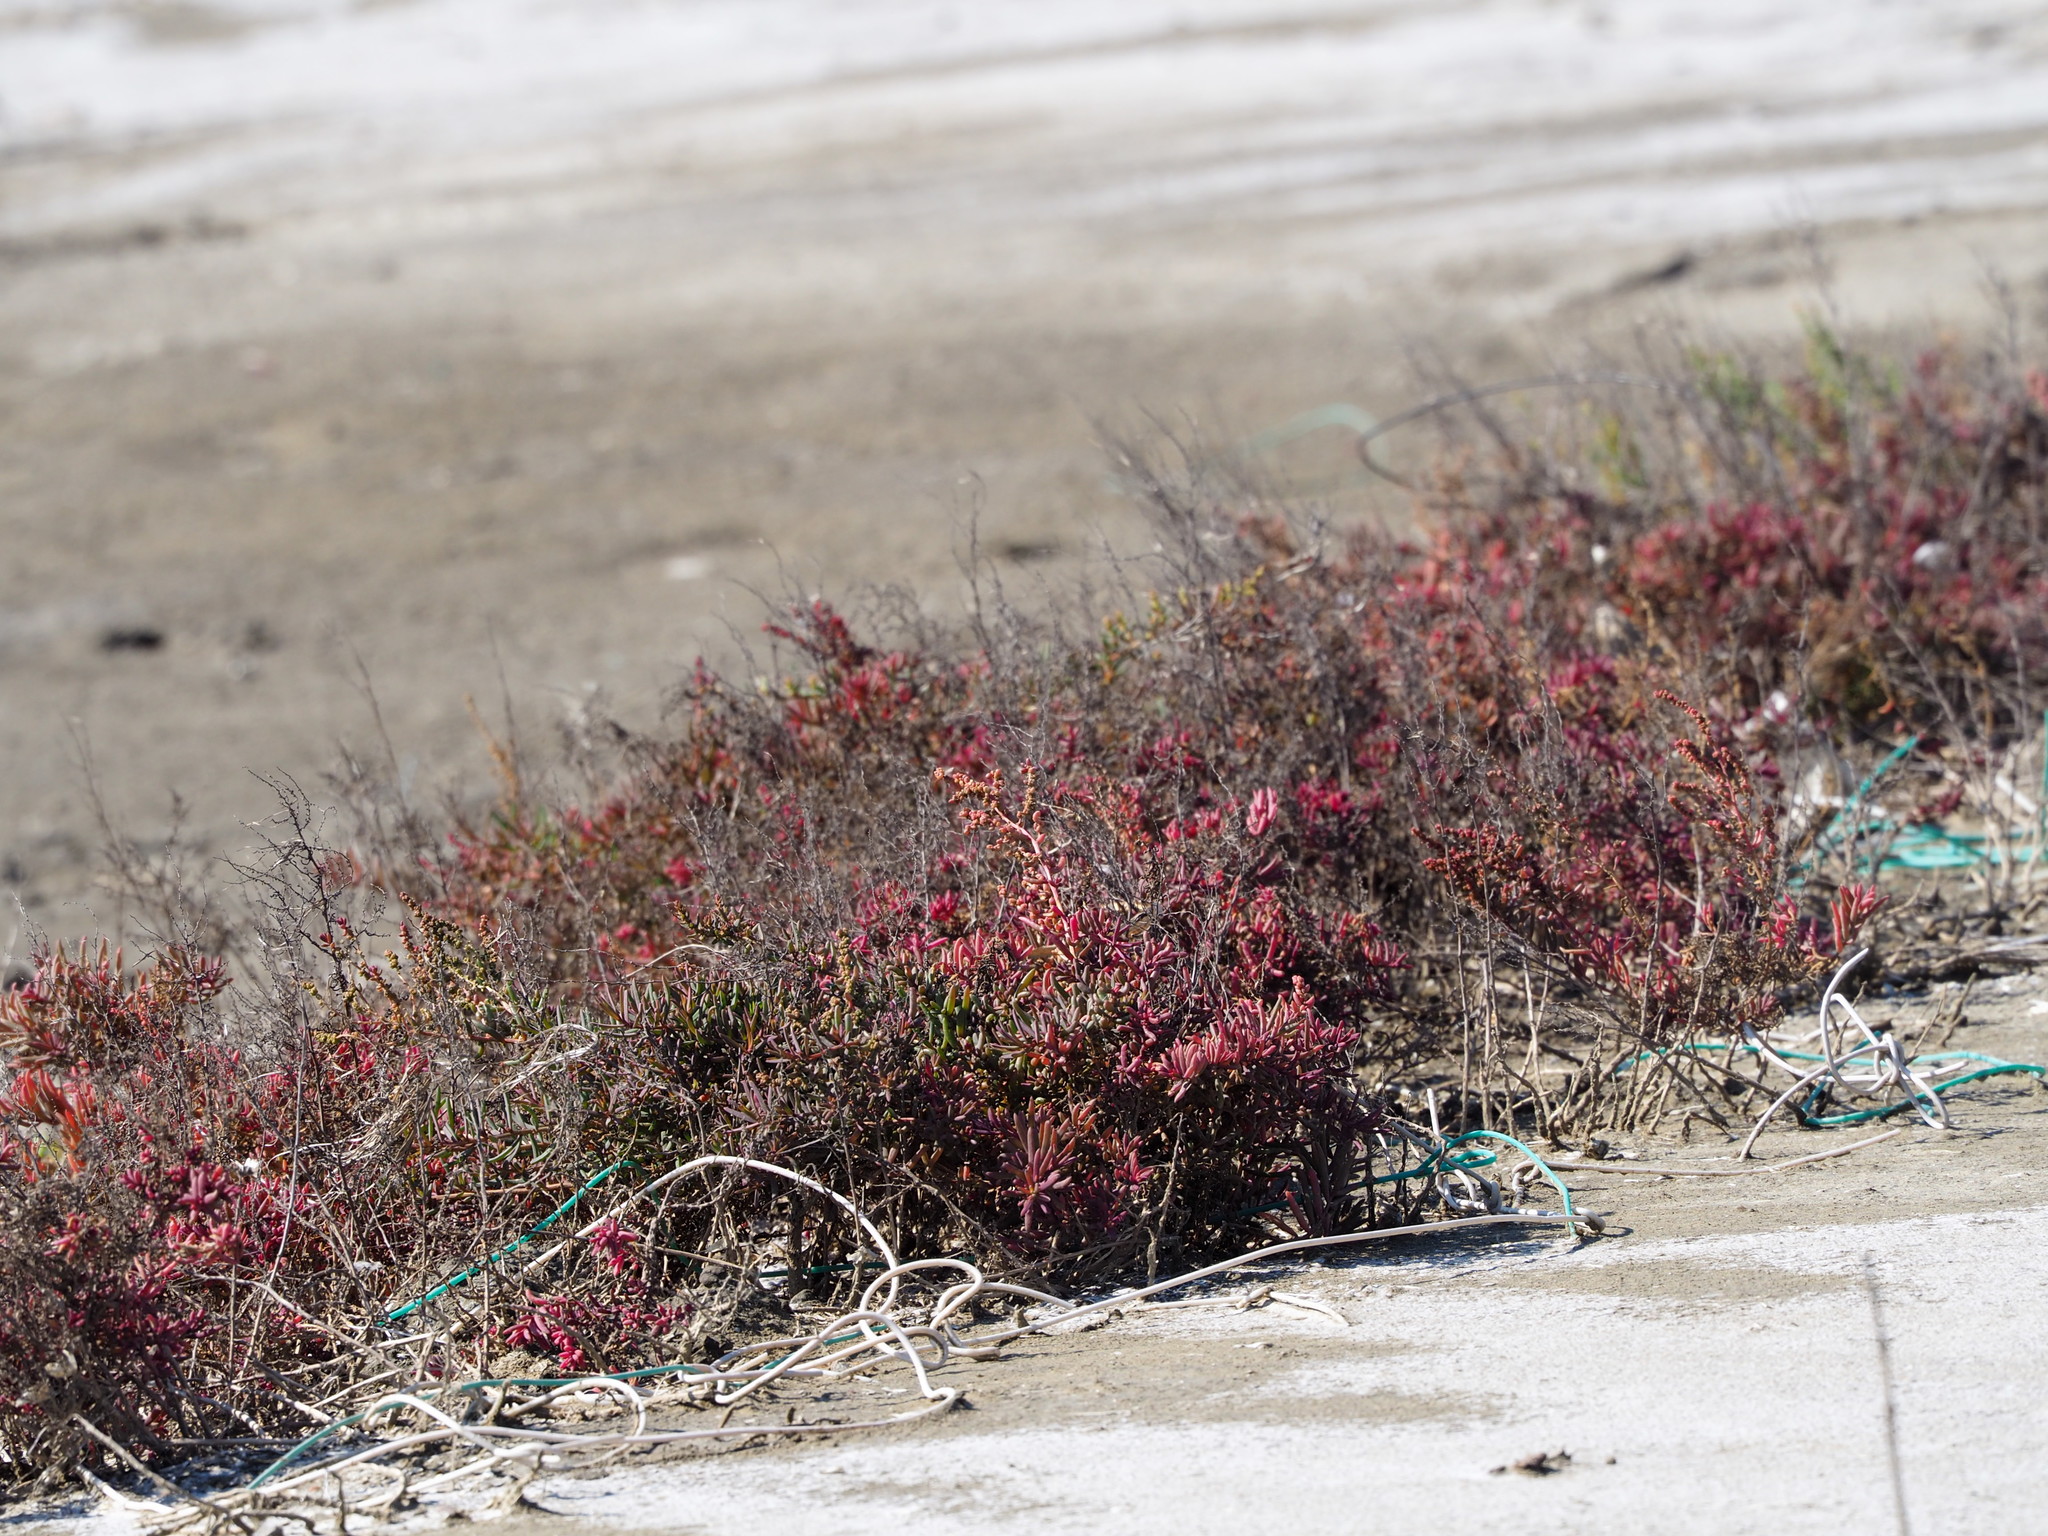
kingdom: Plantae
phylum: Tracheophyta
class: Magnoliopsida
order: Caryophyllales
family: Amaranthaceae
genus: Suaeda
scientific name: Suaeda maritima
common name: Annual sea-blite
